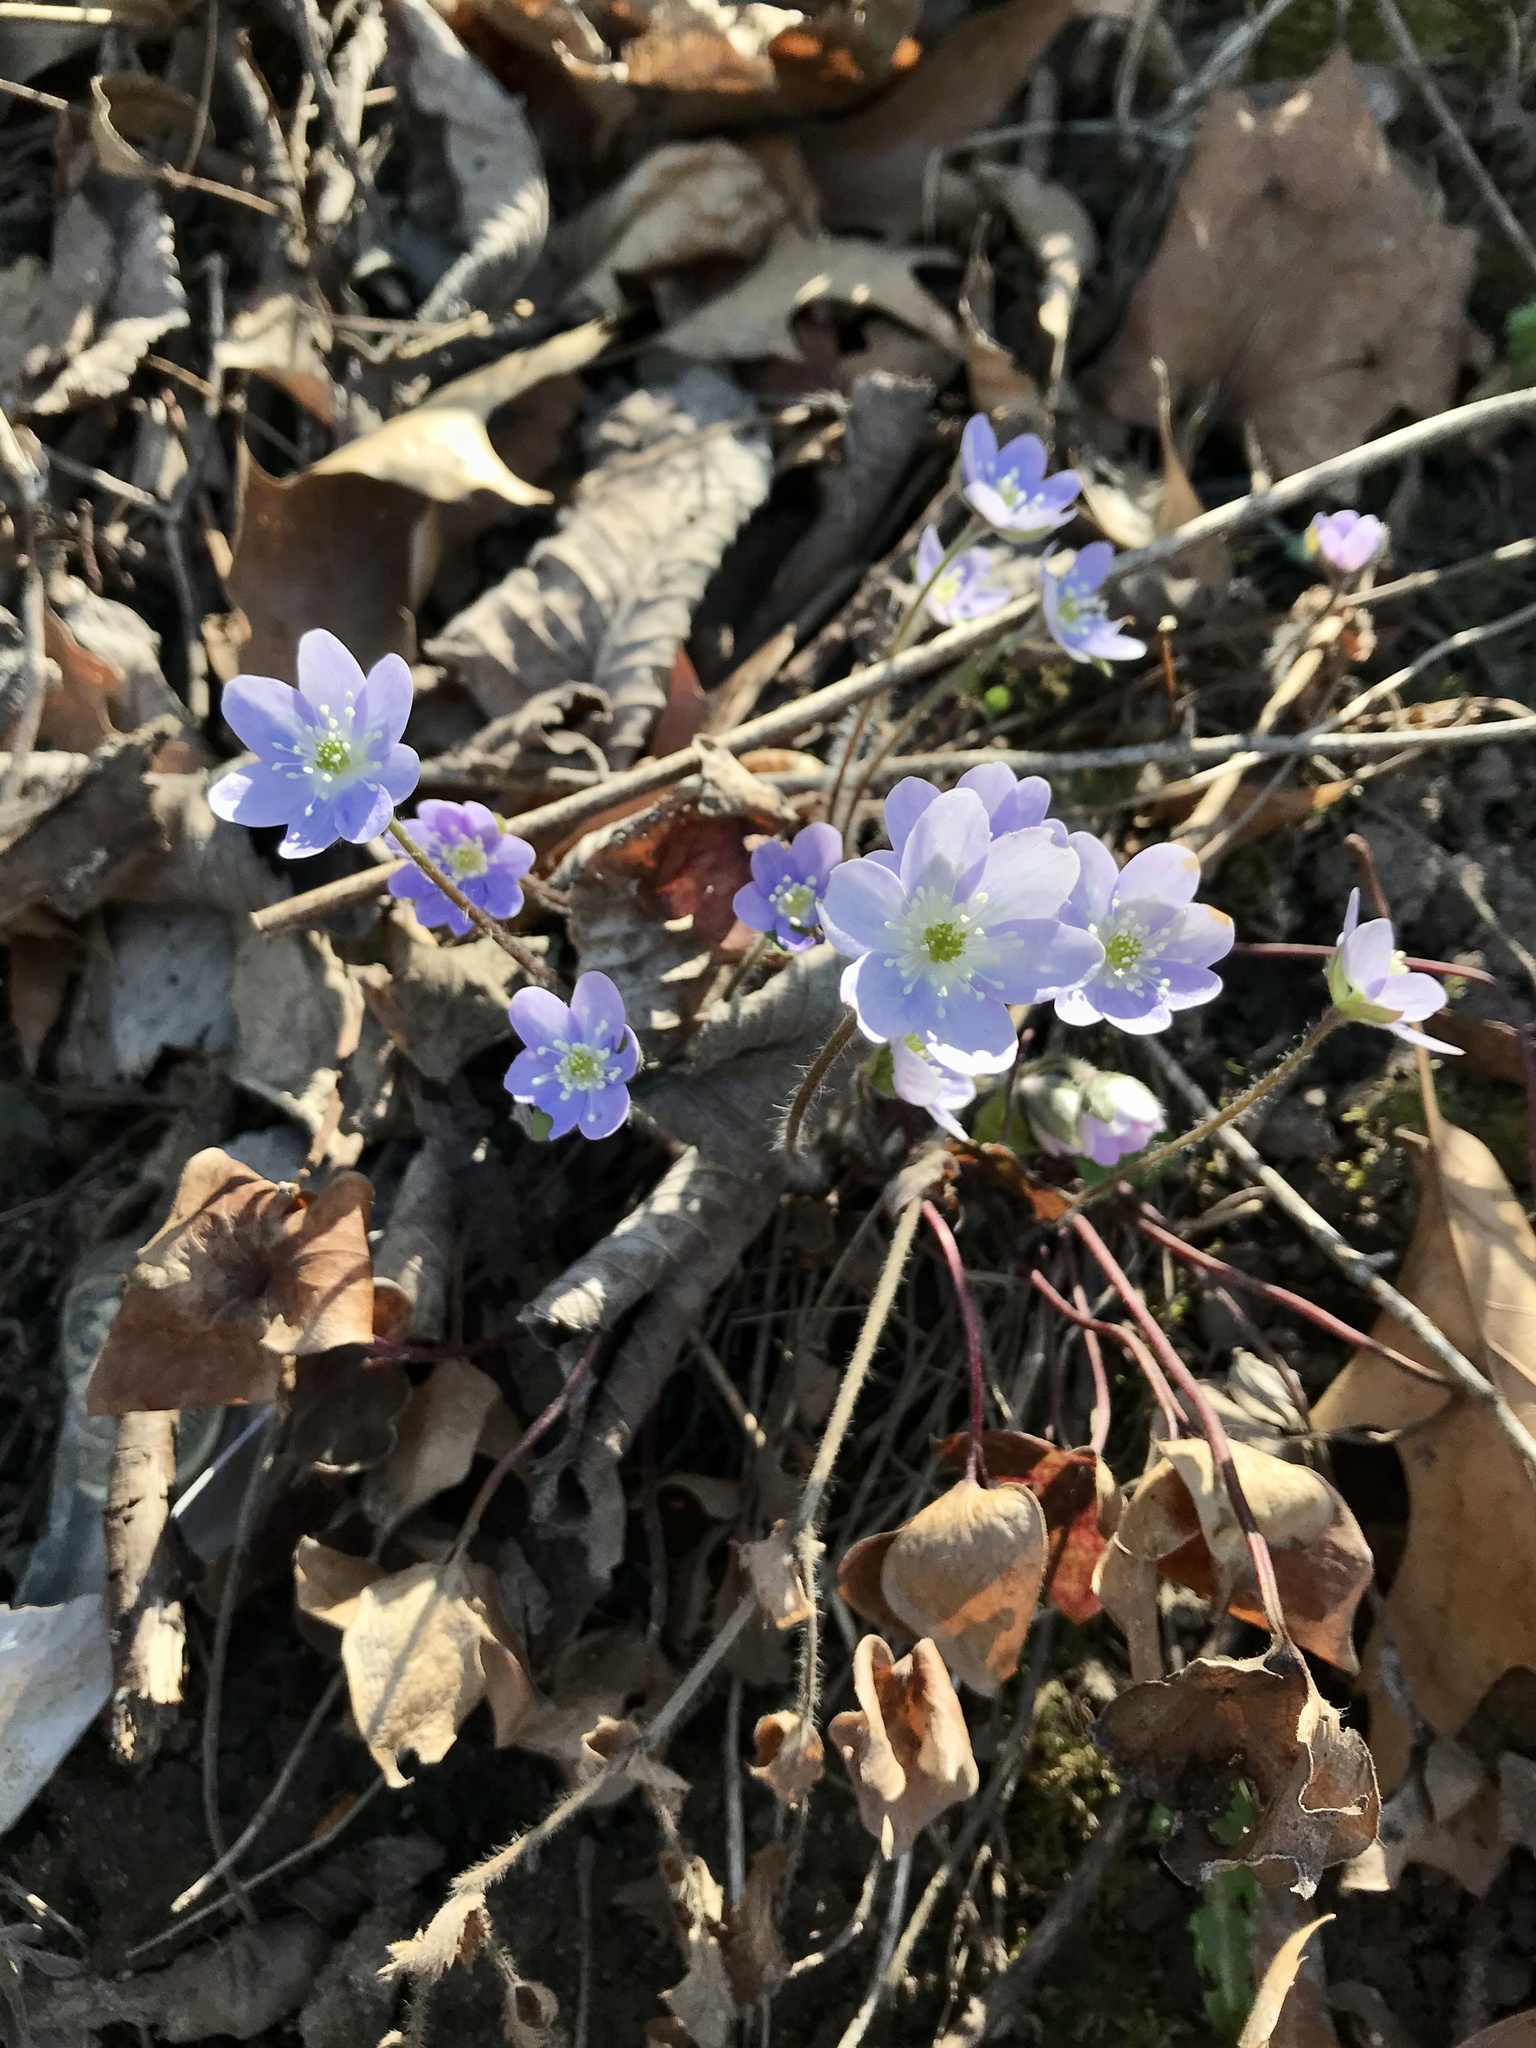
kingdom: Plantae
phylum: Tracheophyta
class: Magnoliopsida
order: Ranunculales
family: Ranunculaceae
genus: Hepatica
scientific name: Hepatica acutiloba
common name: Sharp-lobed hepatica
